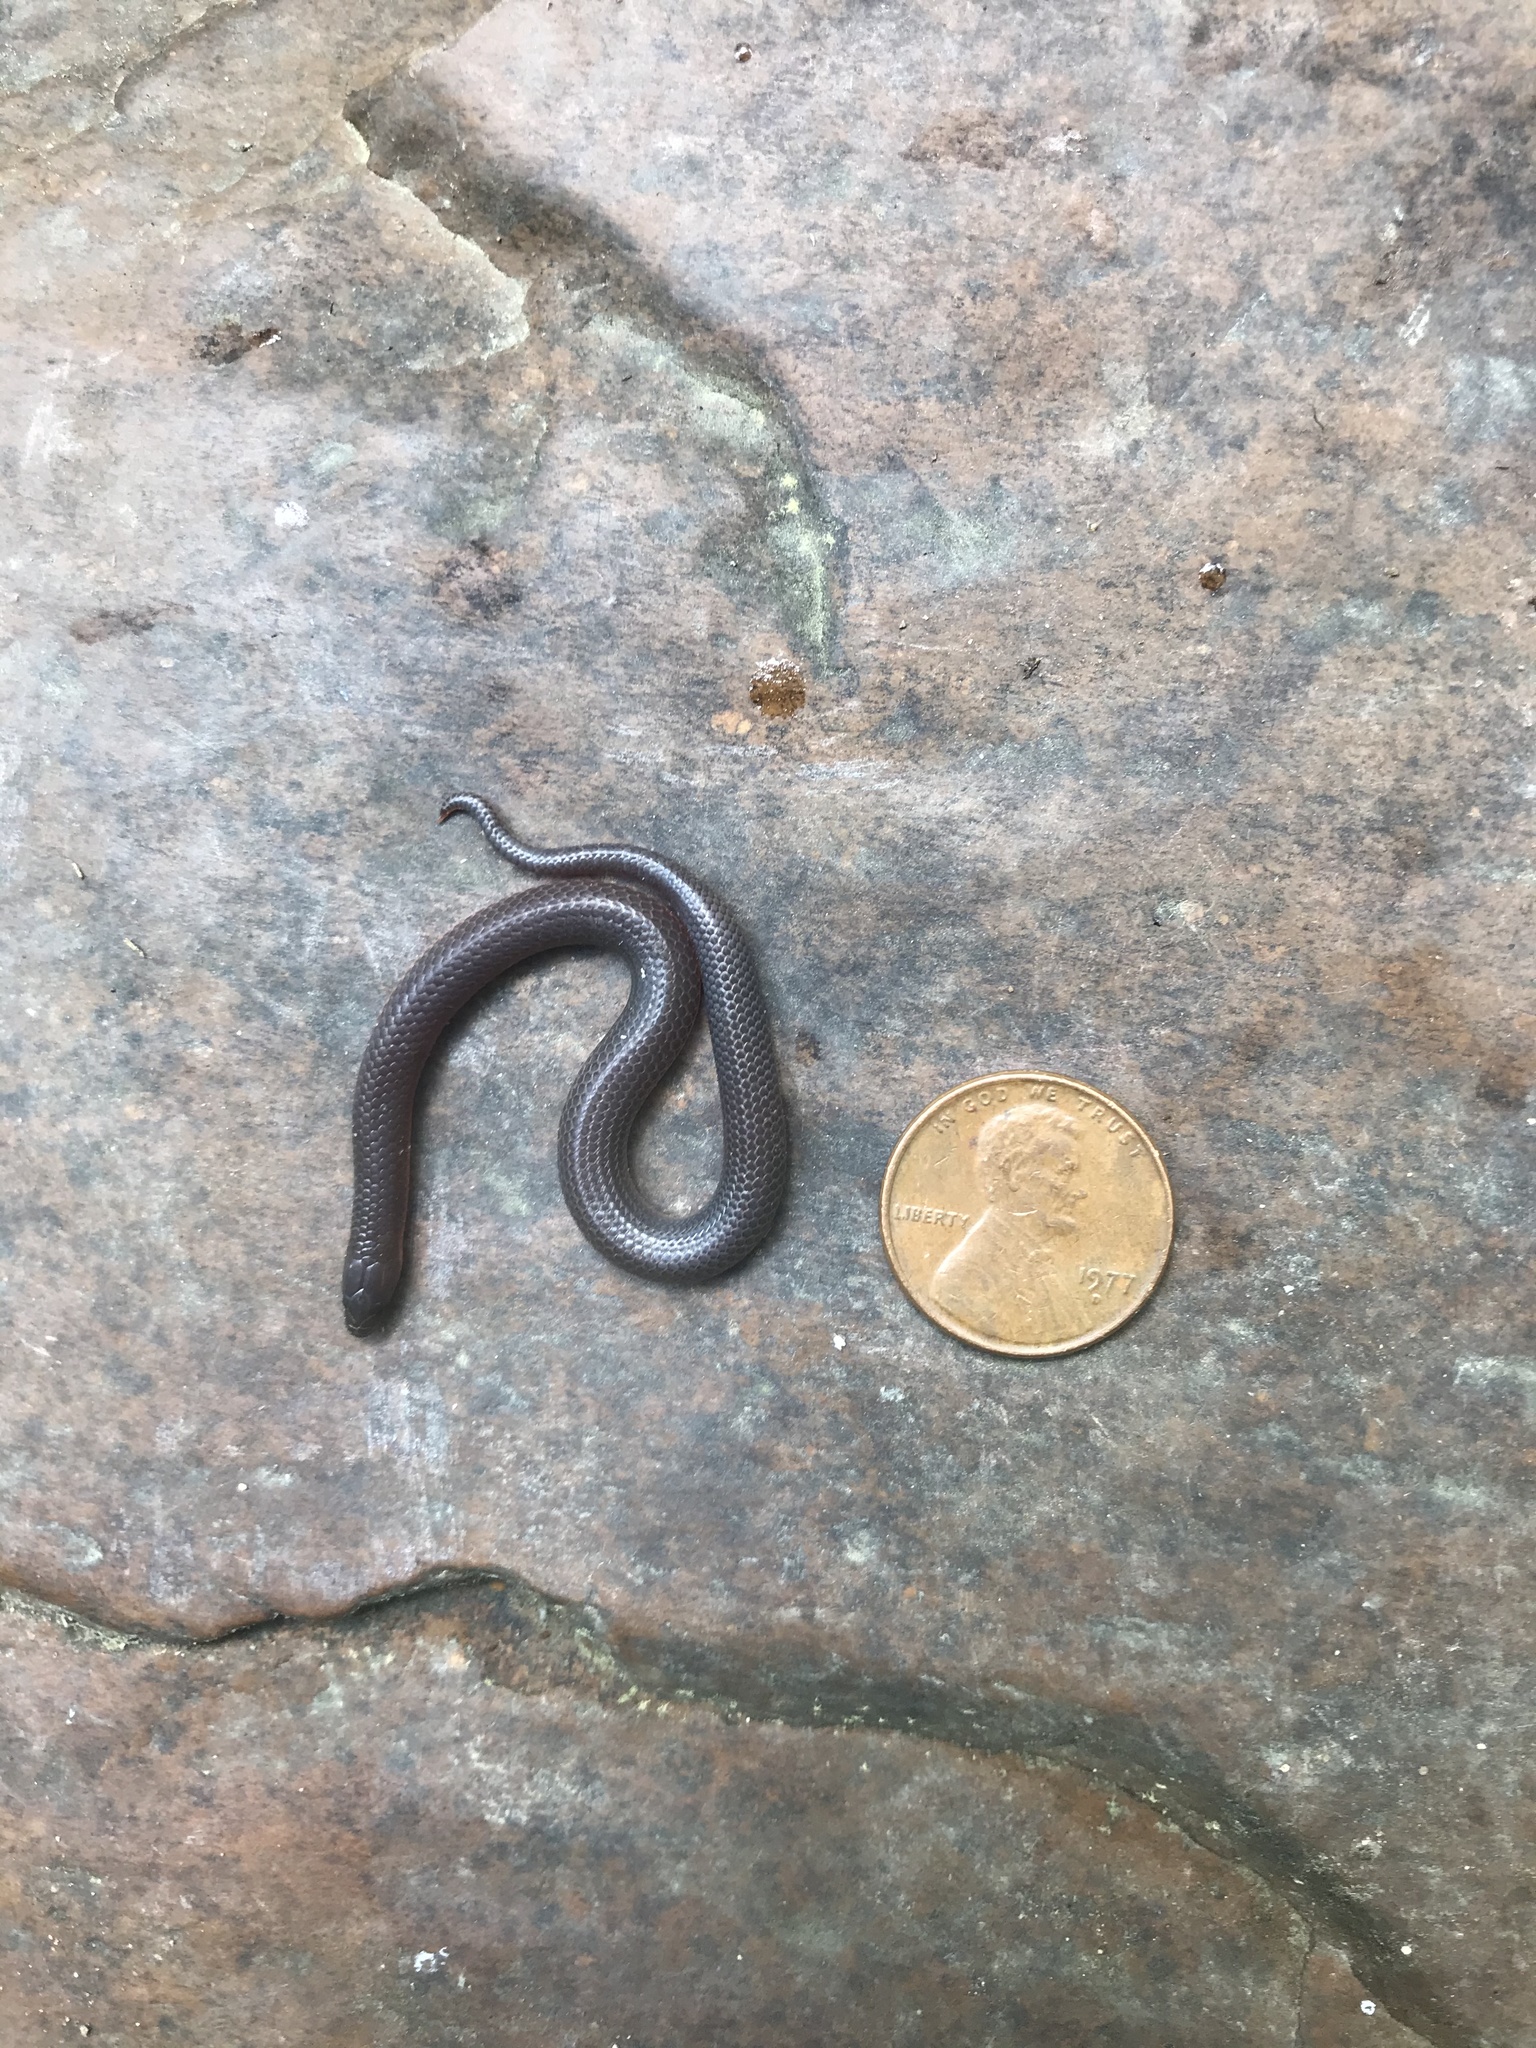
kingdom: Animalia
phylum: Chordata
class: Squamata
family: Colubridae
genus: Carphophis
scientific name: Carphophis amoenus
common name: Eastern worm snake
